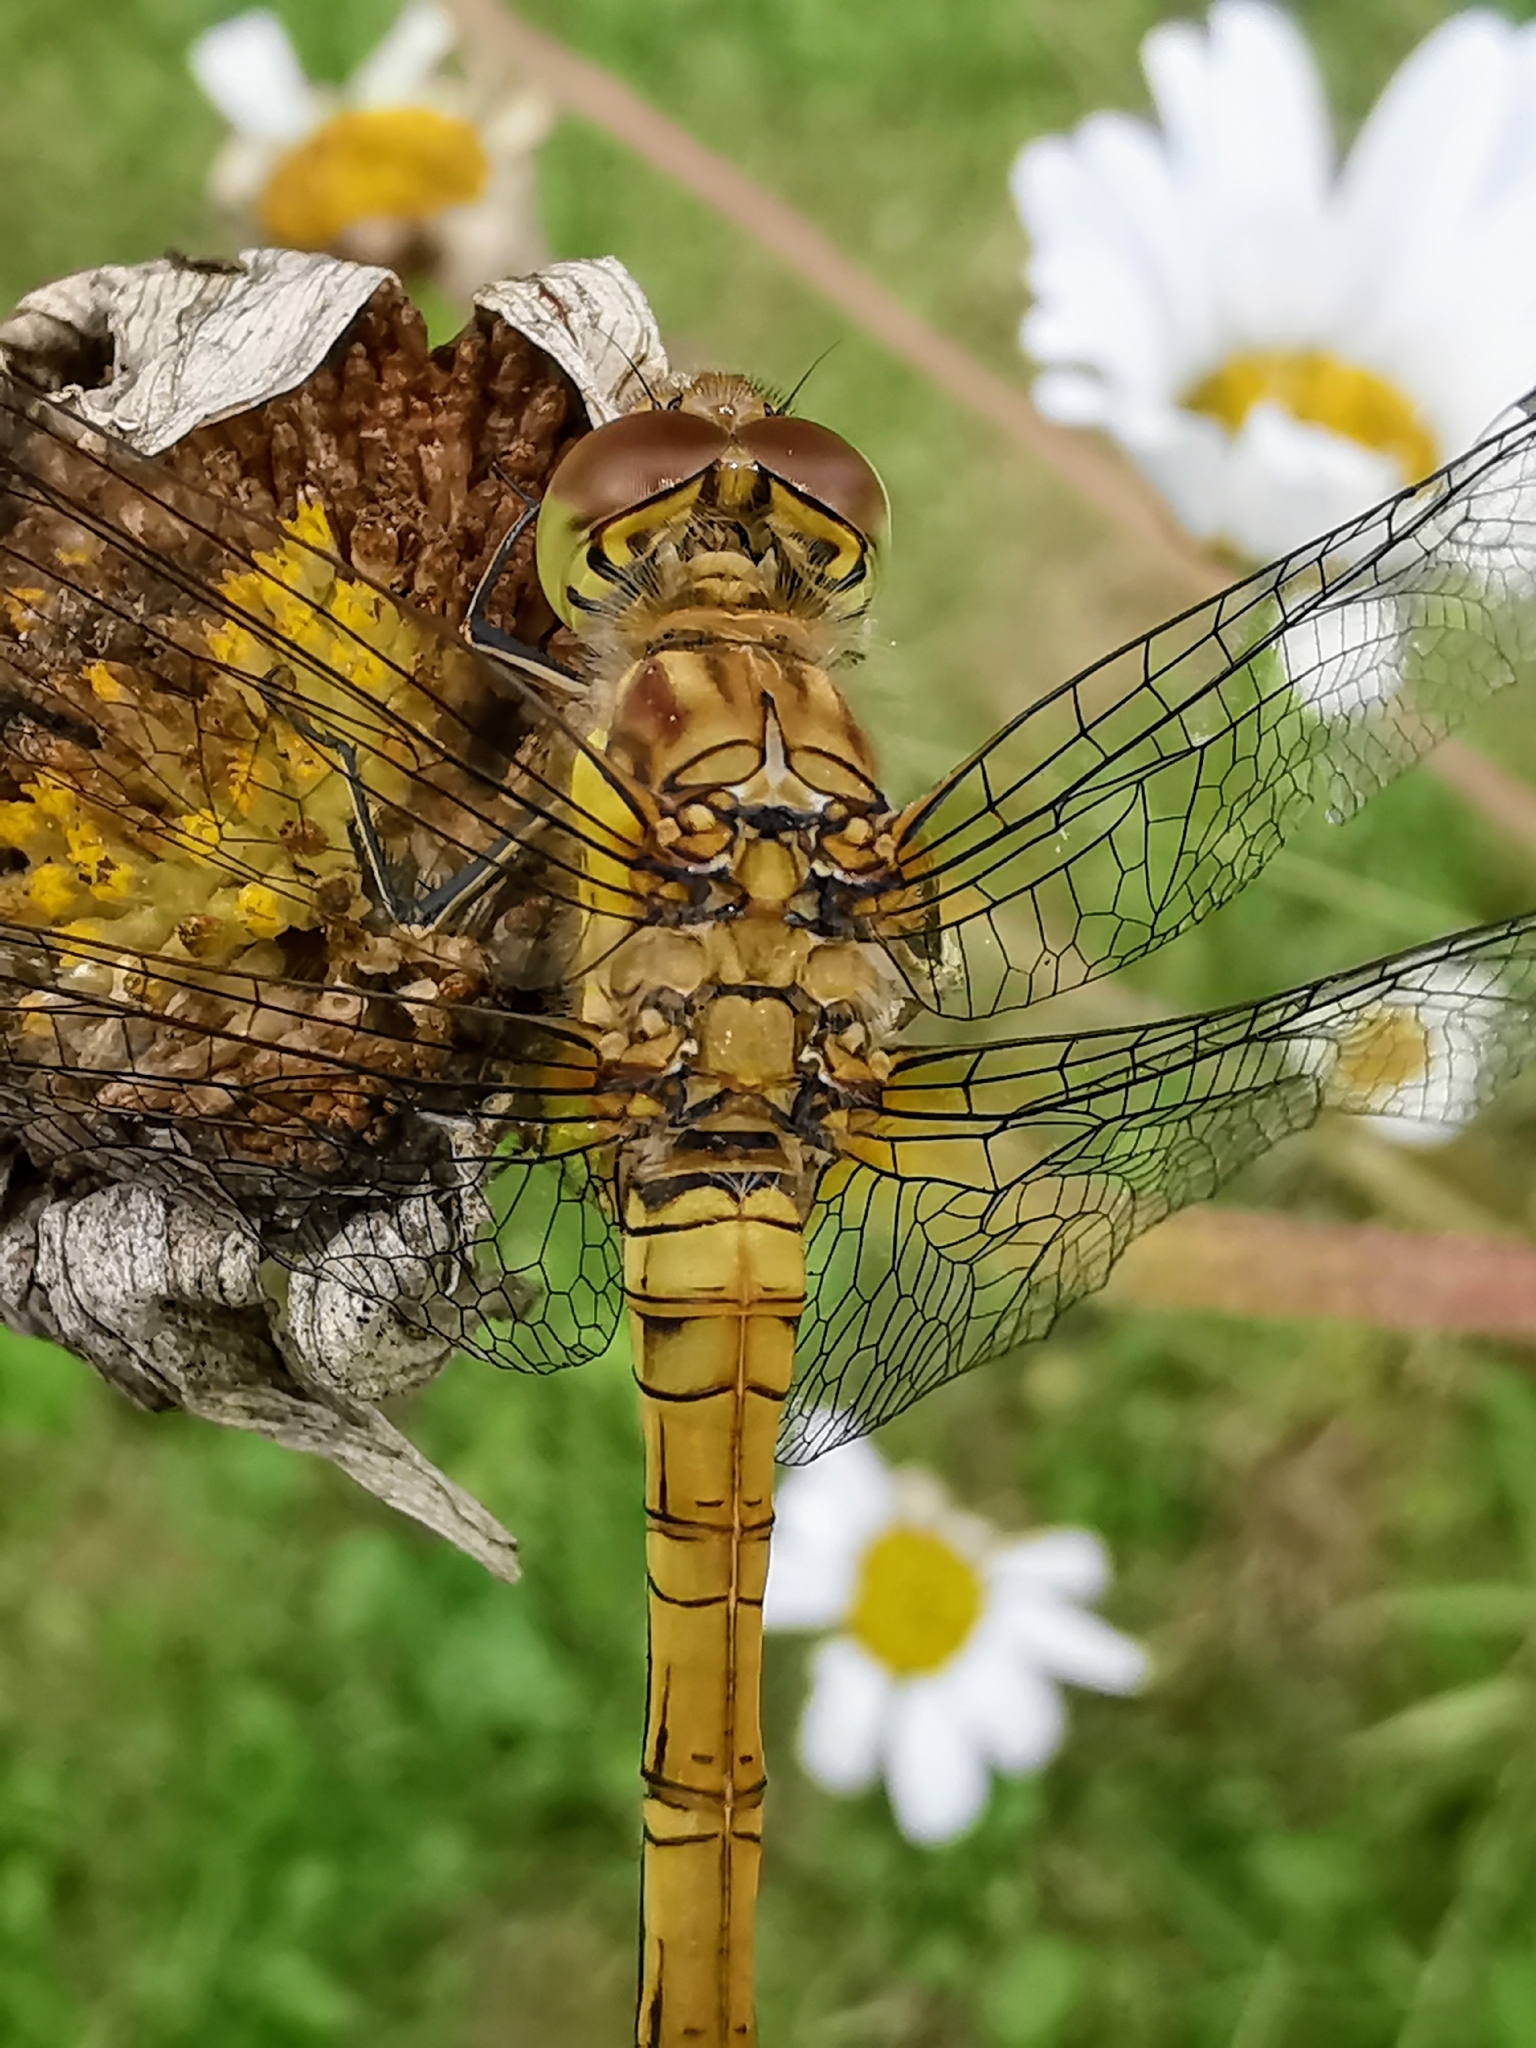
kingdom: Animalia
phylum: Arthropoda
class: Insecta
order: Odonata
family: Libellulidae
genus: Sympetrum
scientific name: Sympetrum striolatum
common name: Common darter
